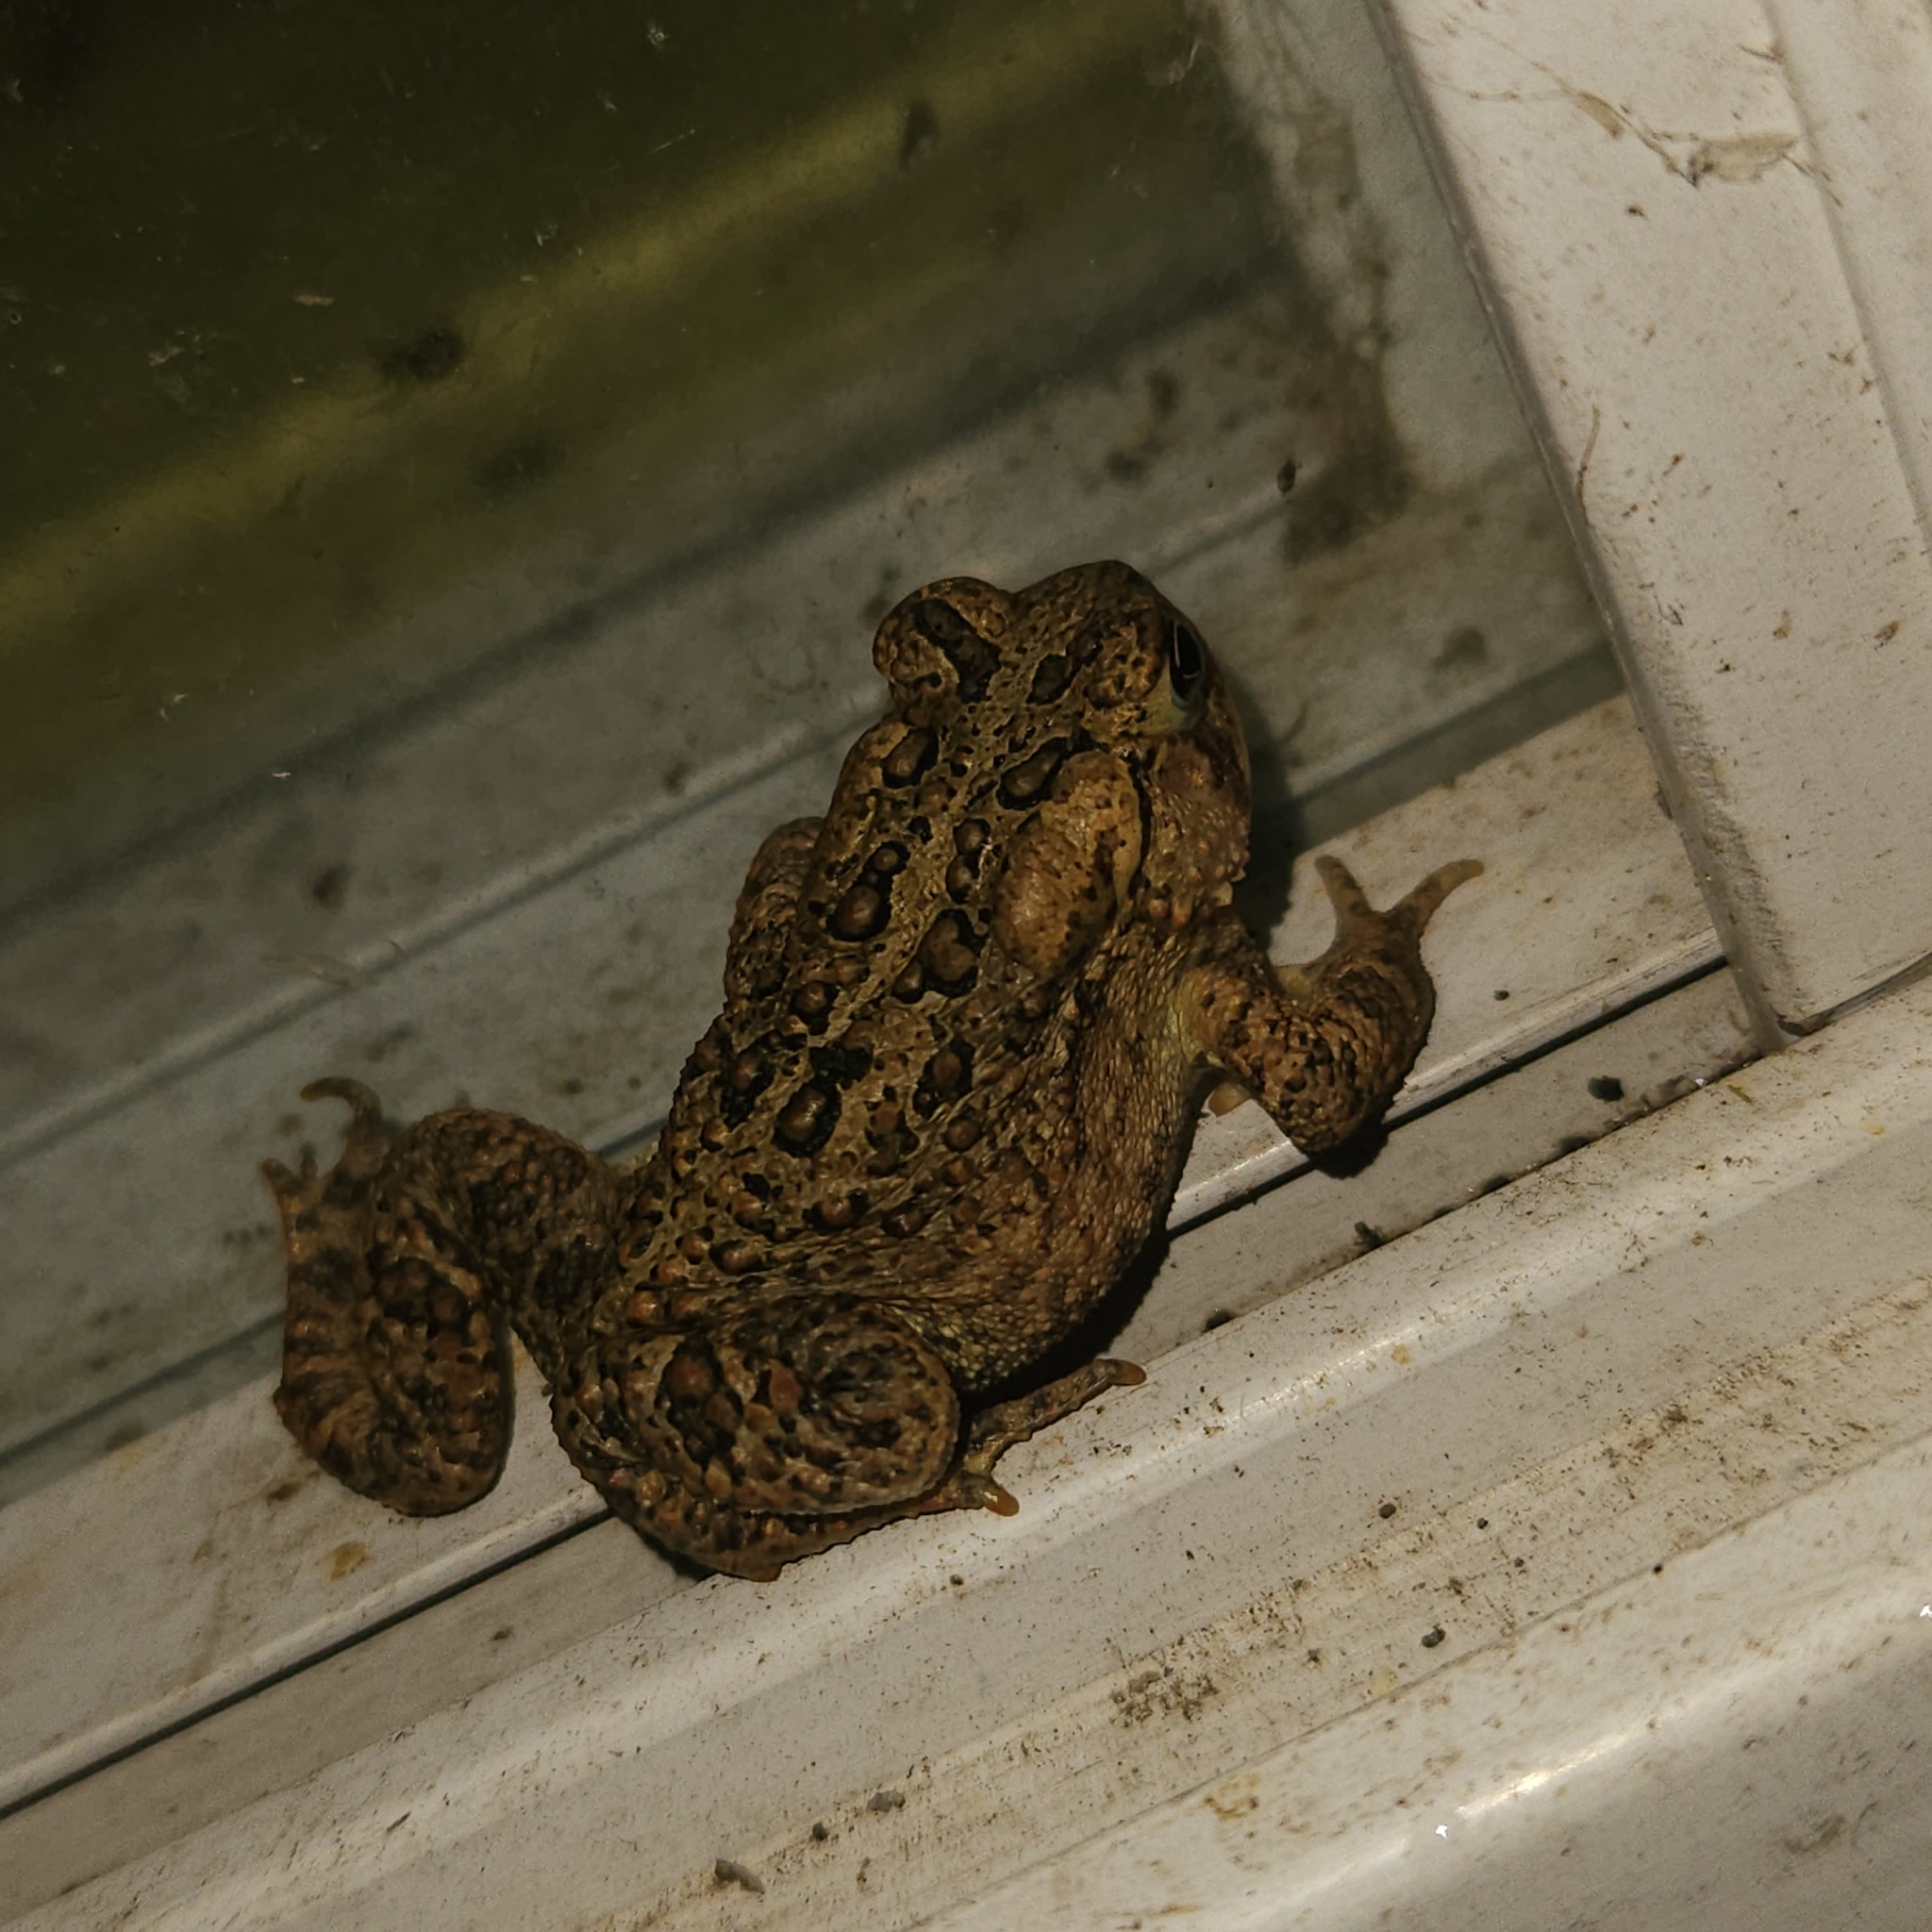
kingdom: Animalia
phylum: Chordata
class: Amphibia
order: Anura
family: Bufonidae
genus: Anaxyrus
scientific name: Anaxyrus americanus
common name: American toad
